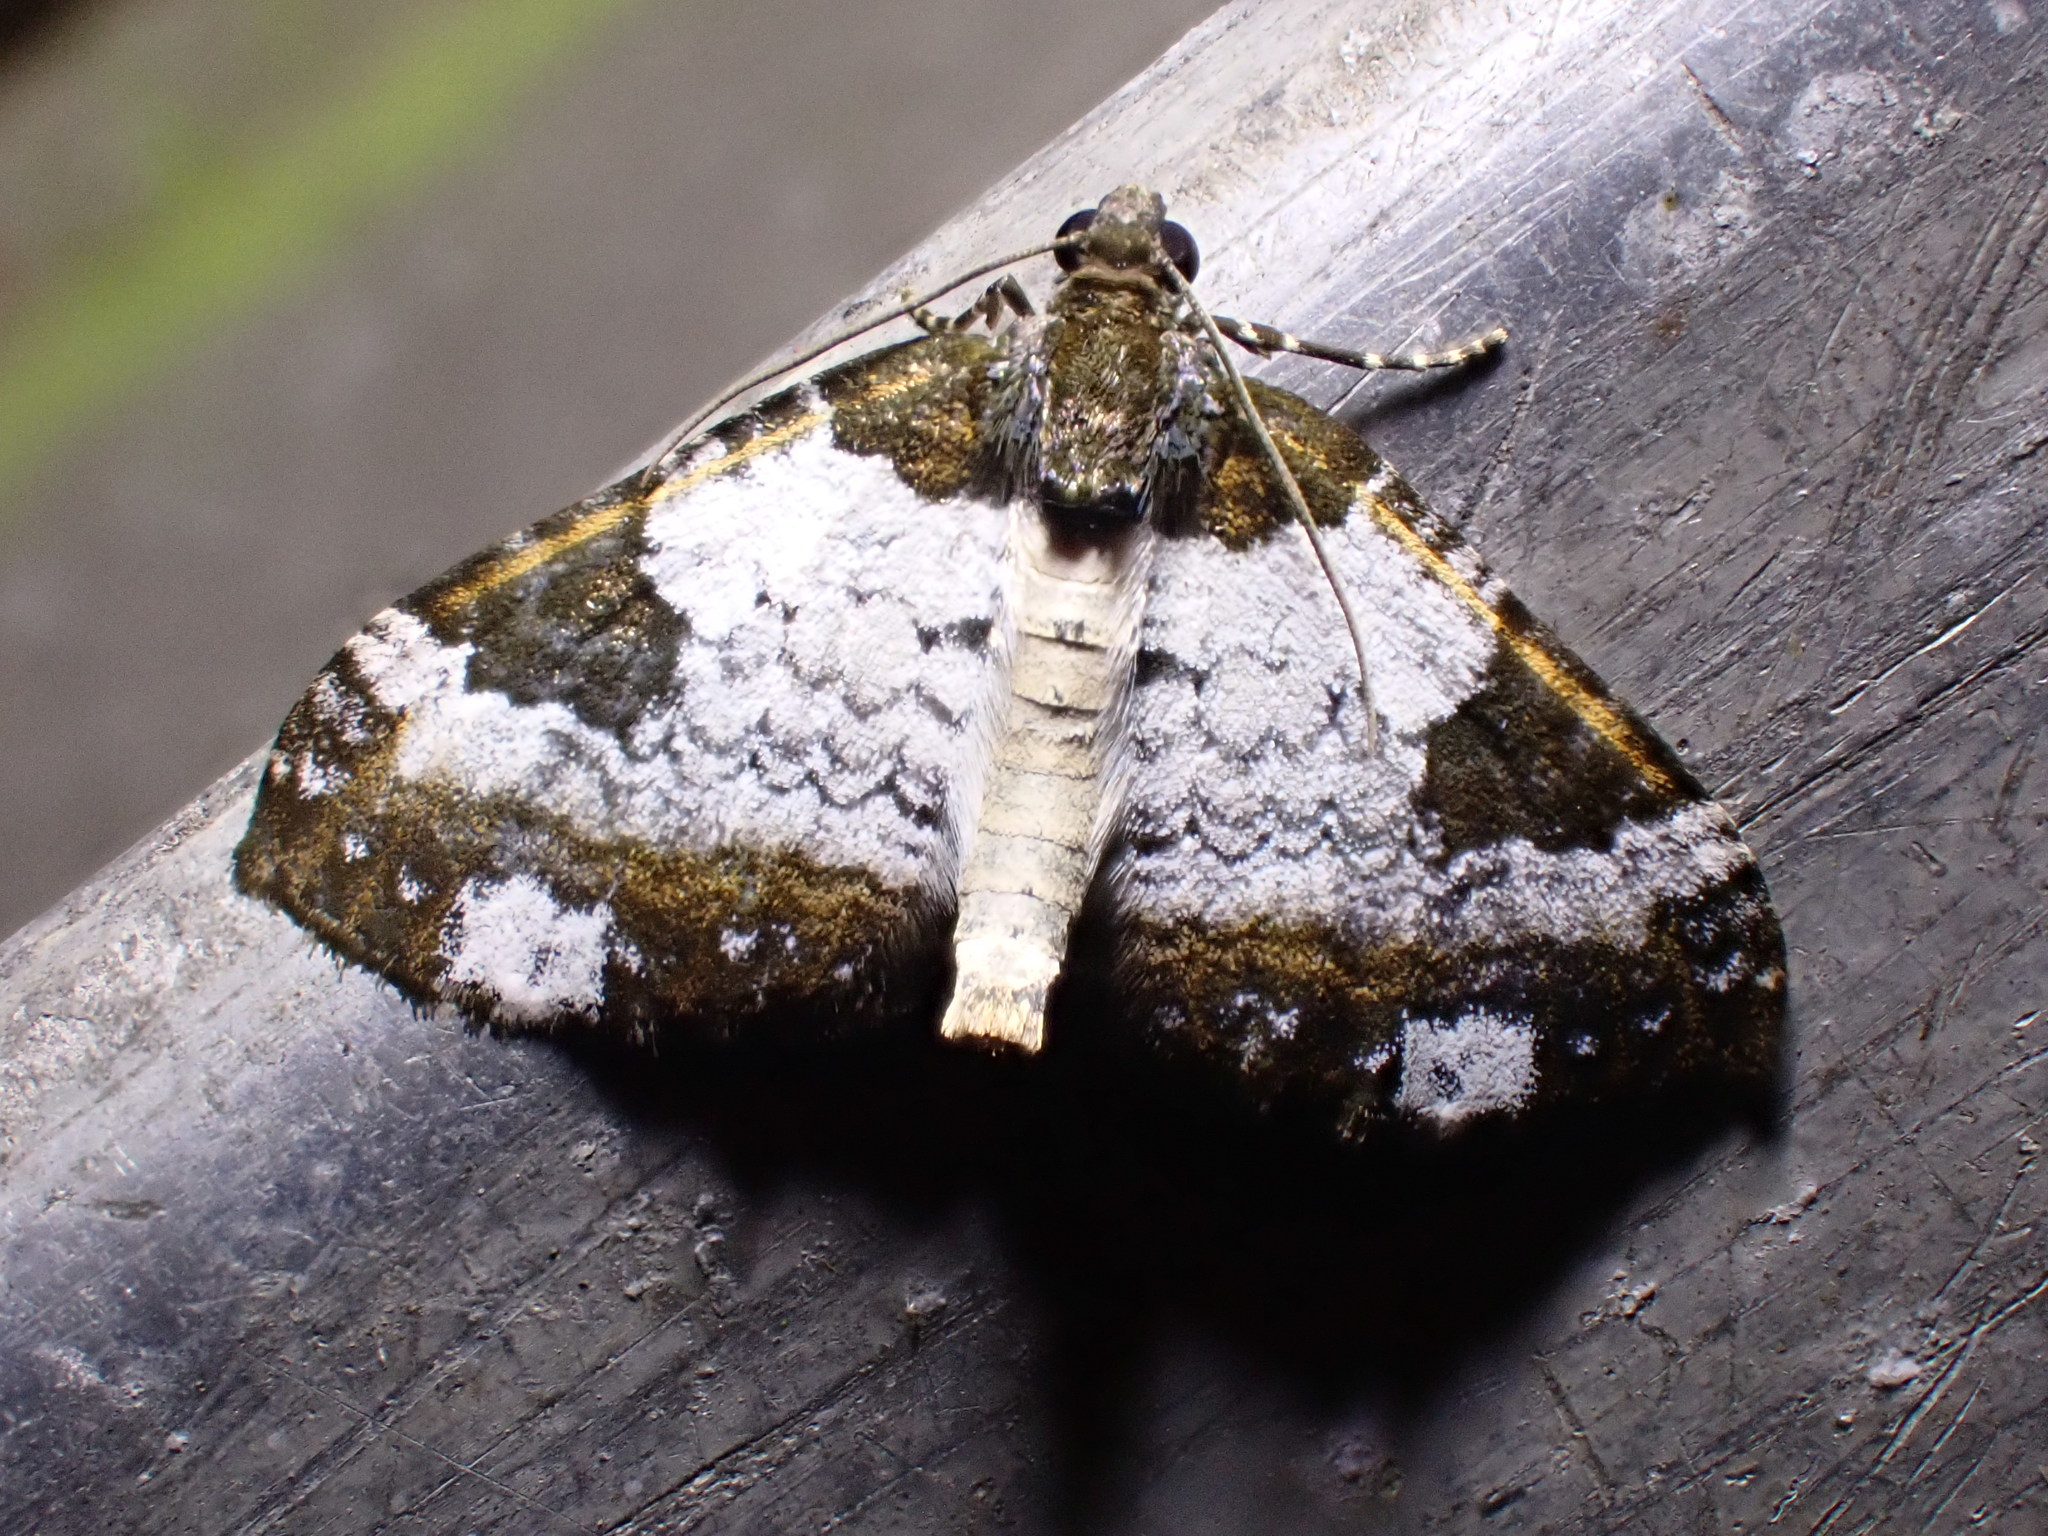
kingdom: Animalia
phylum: Arthropoda
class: Insecta
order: Lepidoptera
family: Geometridae
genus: Melanthia
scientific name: Melanthia procellata
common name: Pretty chalk carpet
